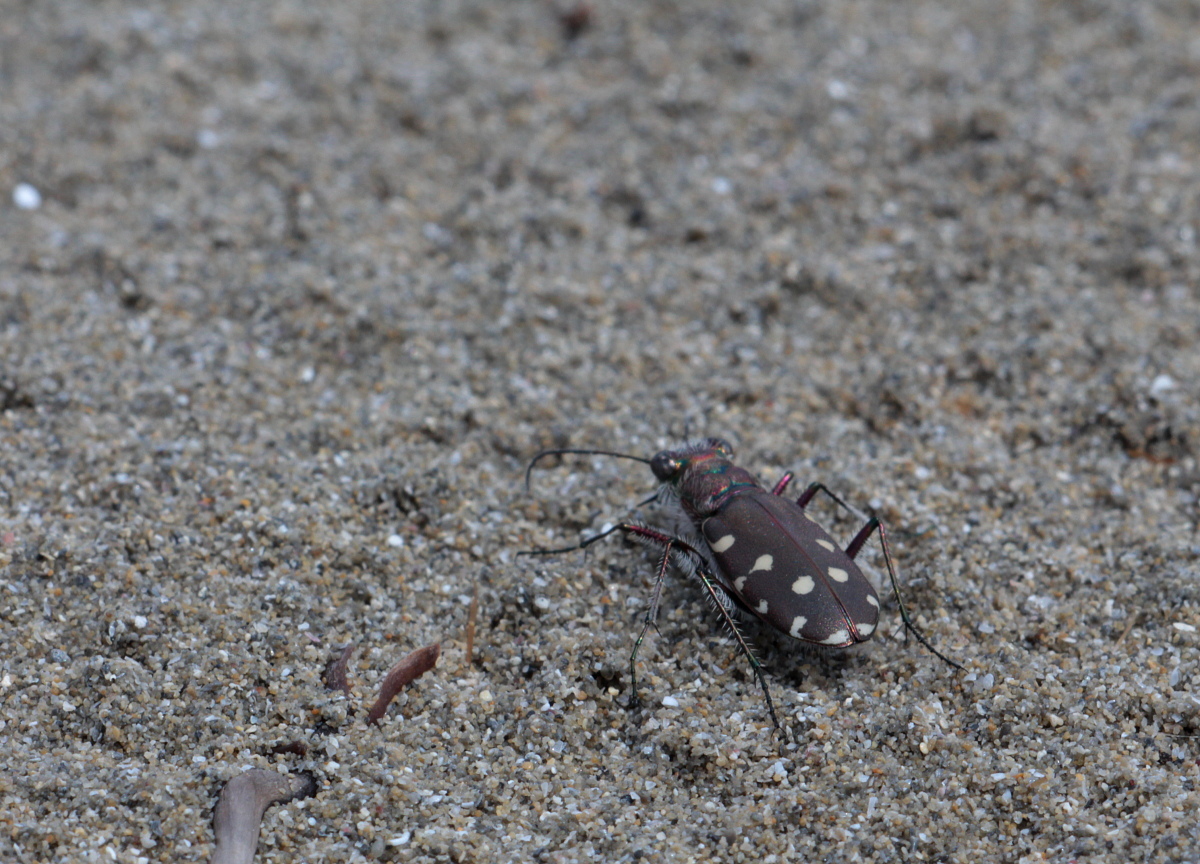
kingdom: Animalia
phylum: Arthropoda
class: Insecta
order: Coleoptera
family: Carabidae
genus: Cicindela
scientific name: Cicindela littoralis
